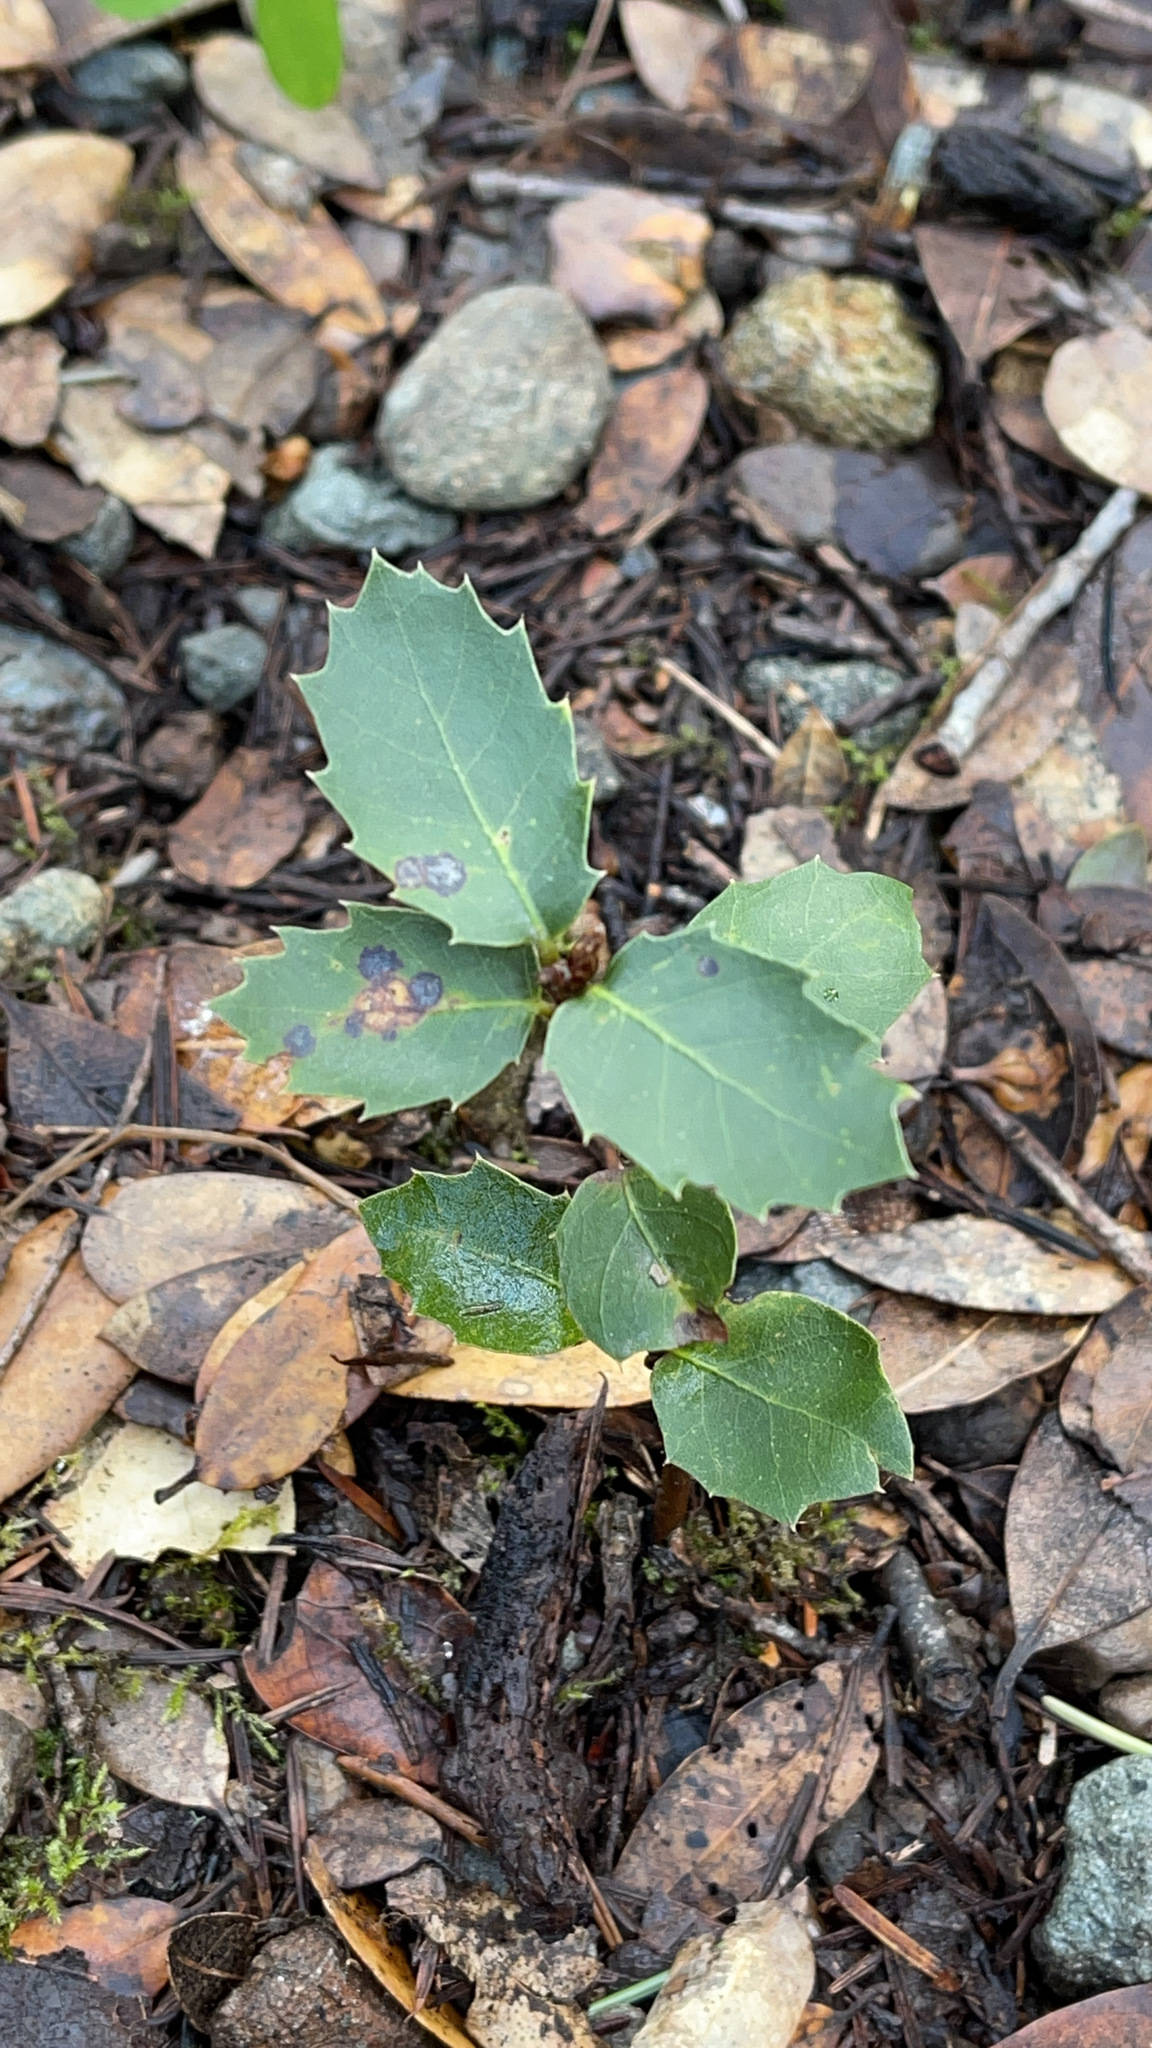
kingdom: Plantae
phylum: Tracheophyta
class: Magnoliopsida
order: Fagales
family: Fagaceae
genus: Quercus
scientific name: Quercus chrysolepis
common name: Canyon live oak
